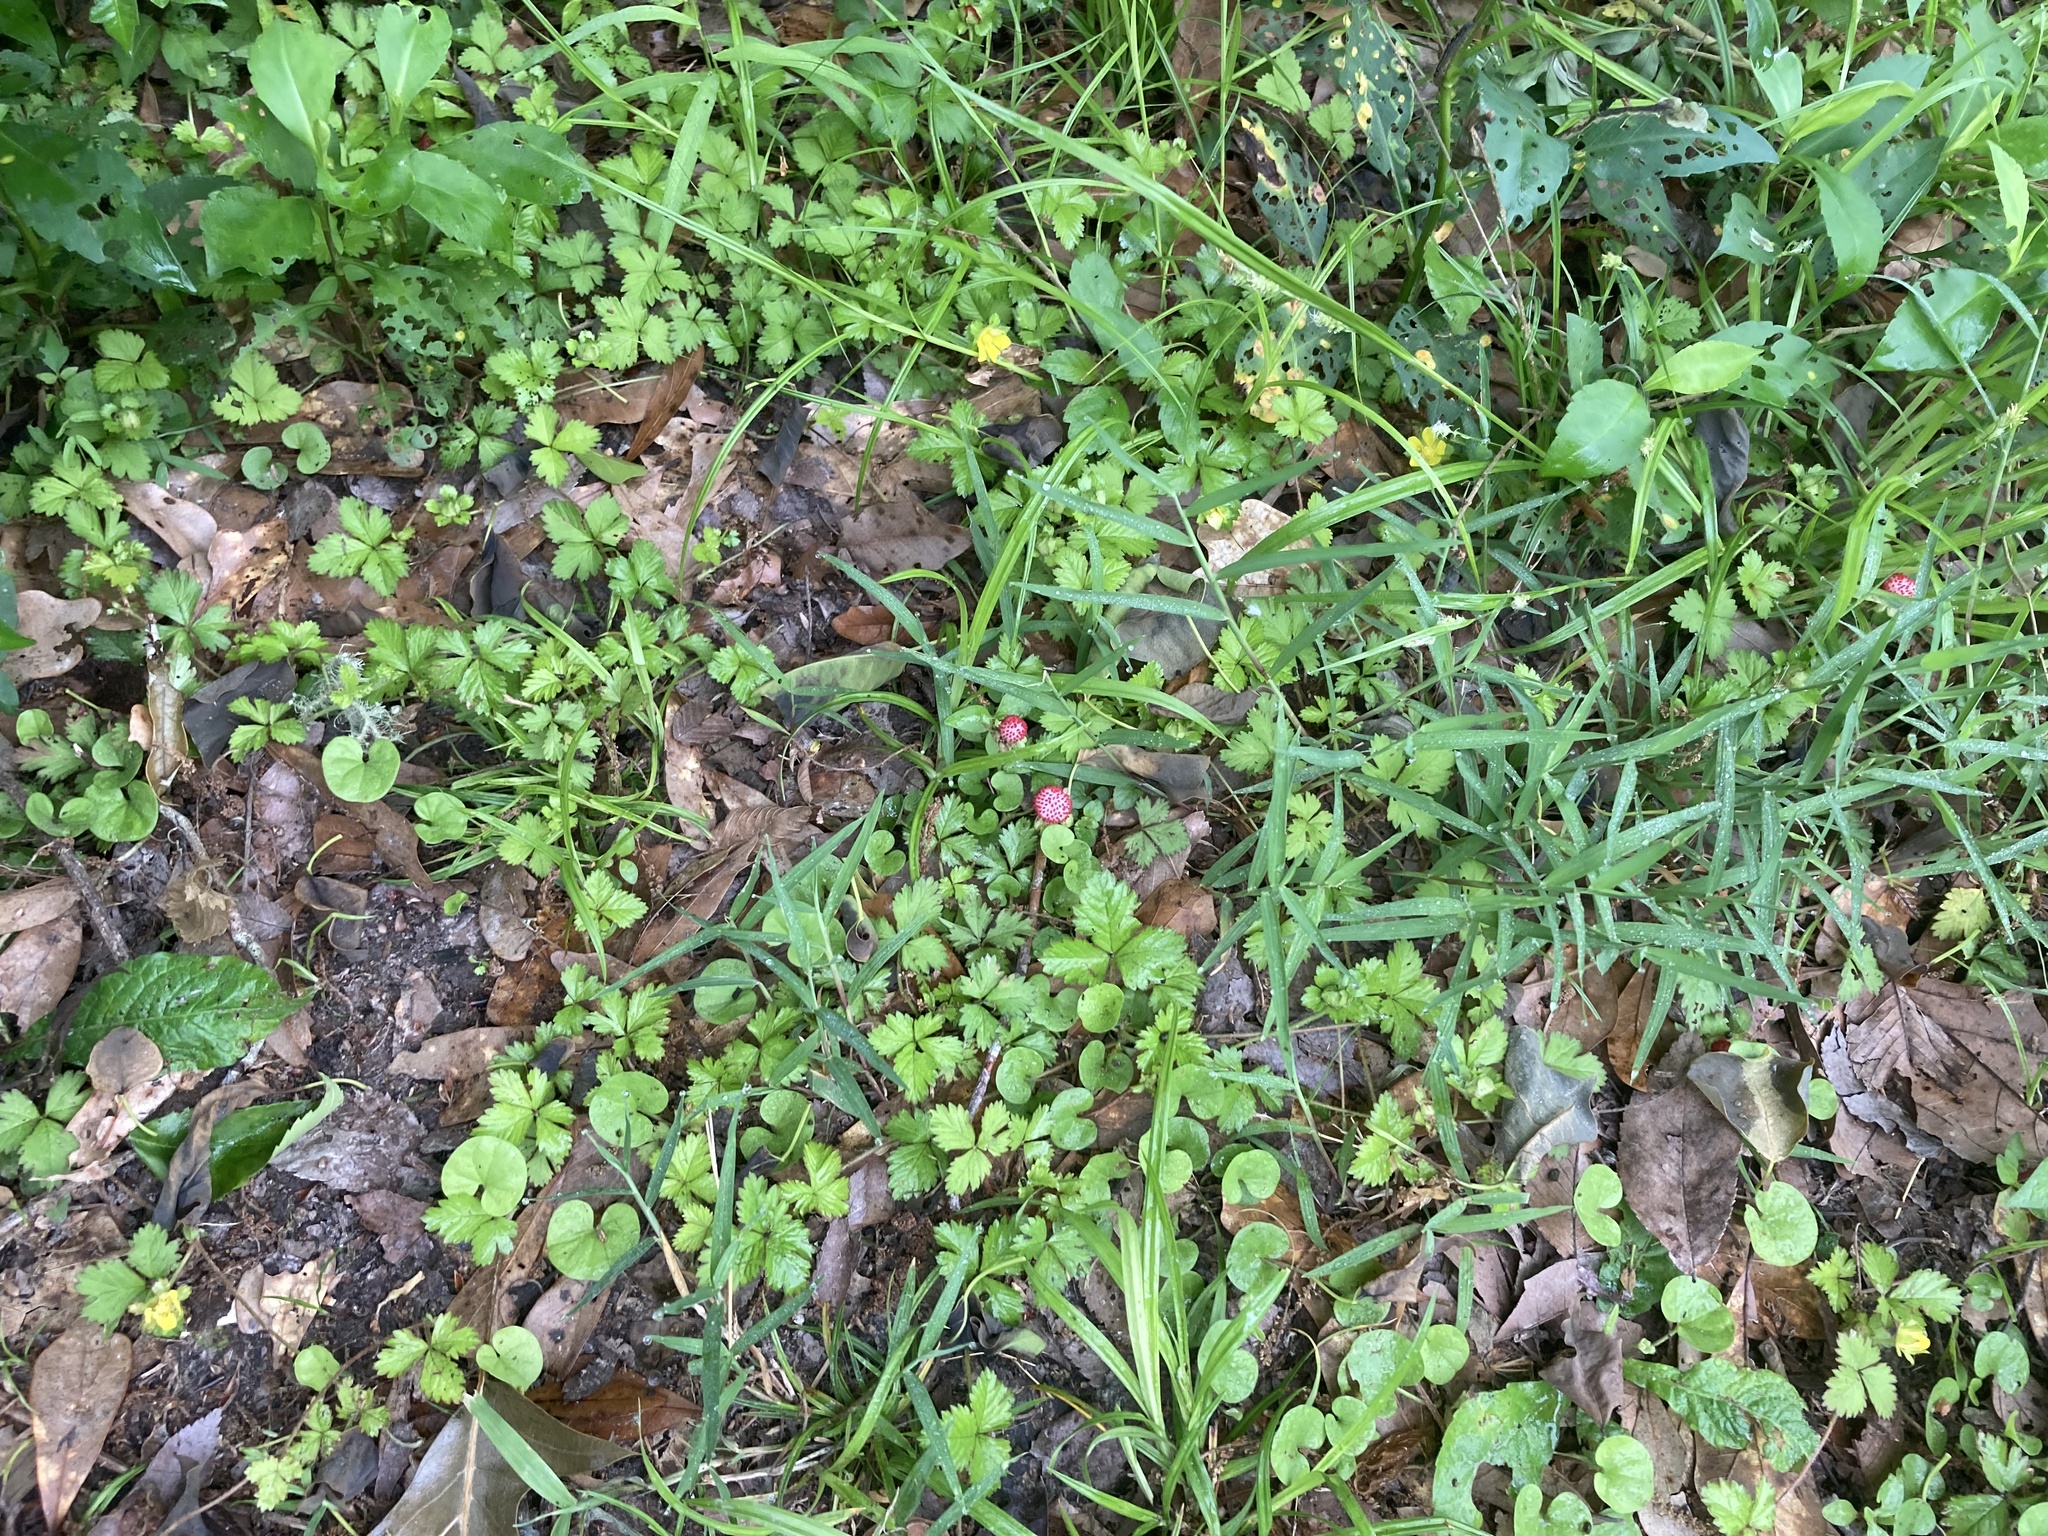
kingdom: Plantae
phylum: Tracheophyta
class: Magnoliopsida
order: Rosales
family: Rosaceae
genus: Potentilla
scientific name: Potentilla indica
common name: Yellow-flowered strawberry
